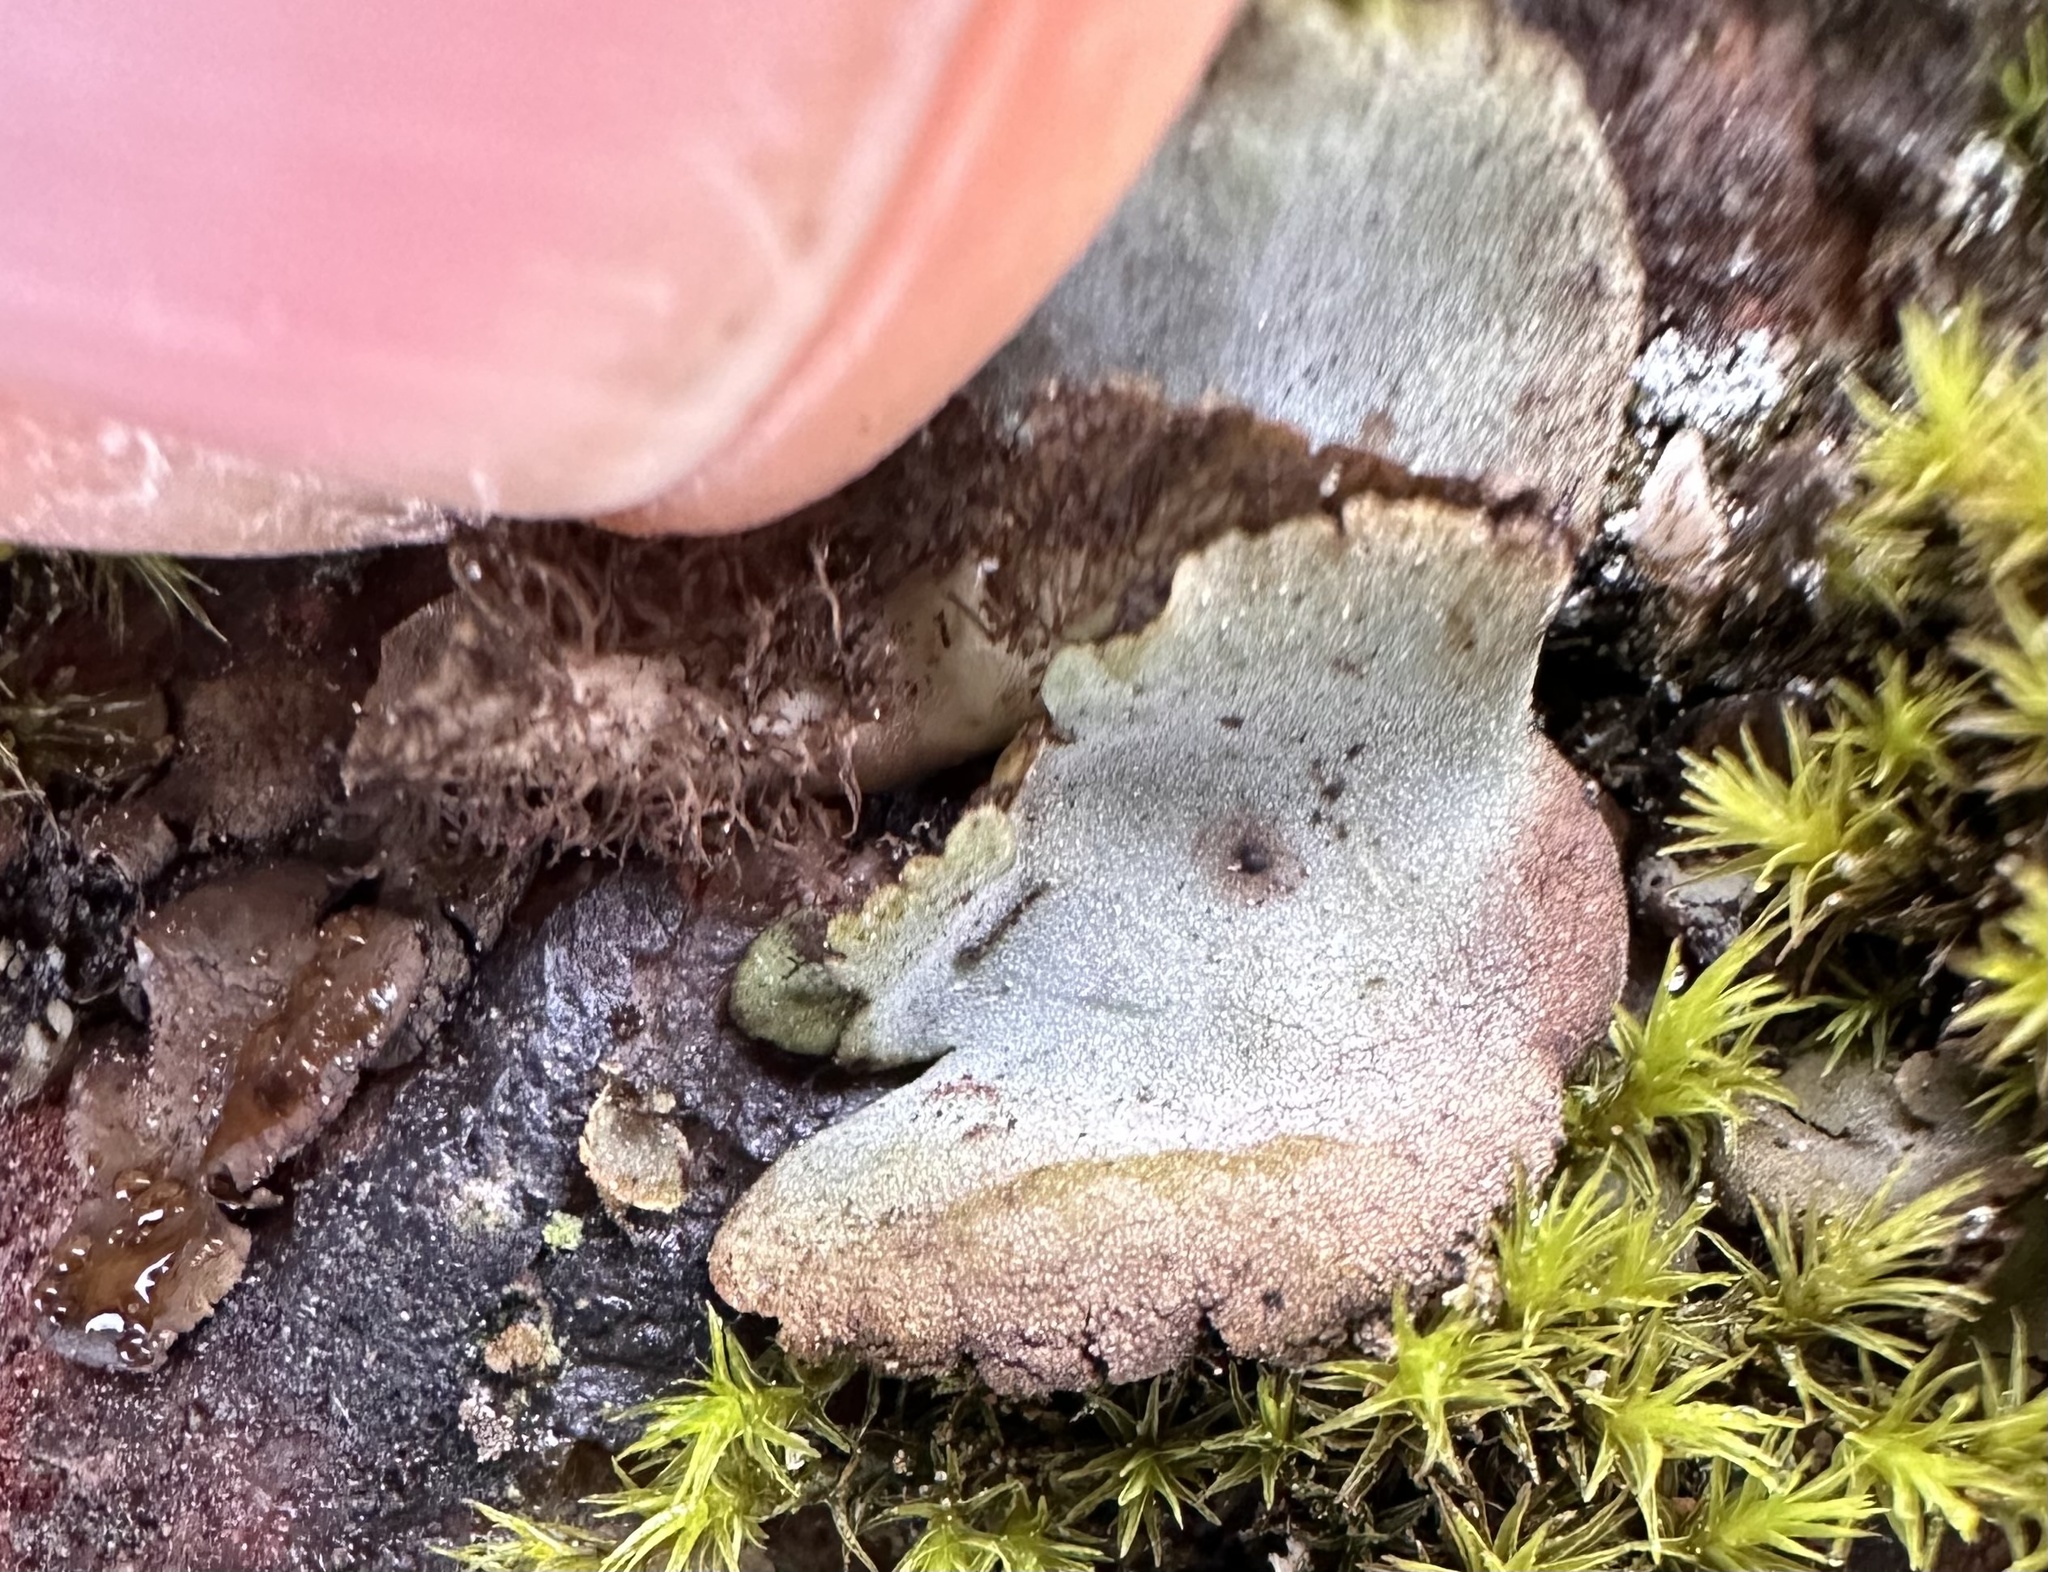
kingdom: Fungi
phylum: Ascomycota
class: Lecanoromycetes
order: Umbilicariales
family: Umbilicariaceae
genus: Umbilicaria
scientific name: Umbilicaria hirsuta
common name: Granulating rocktripe lichen
